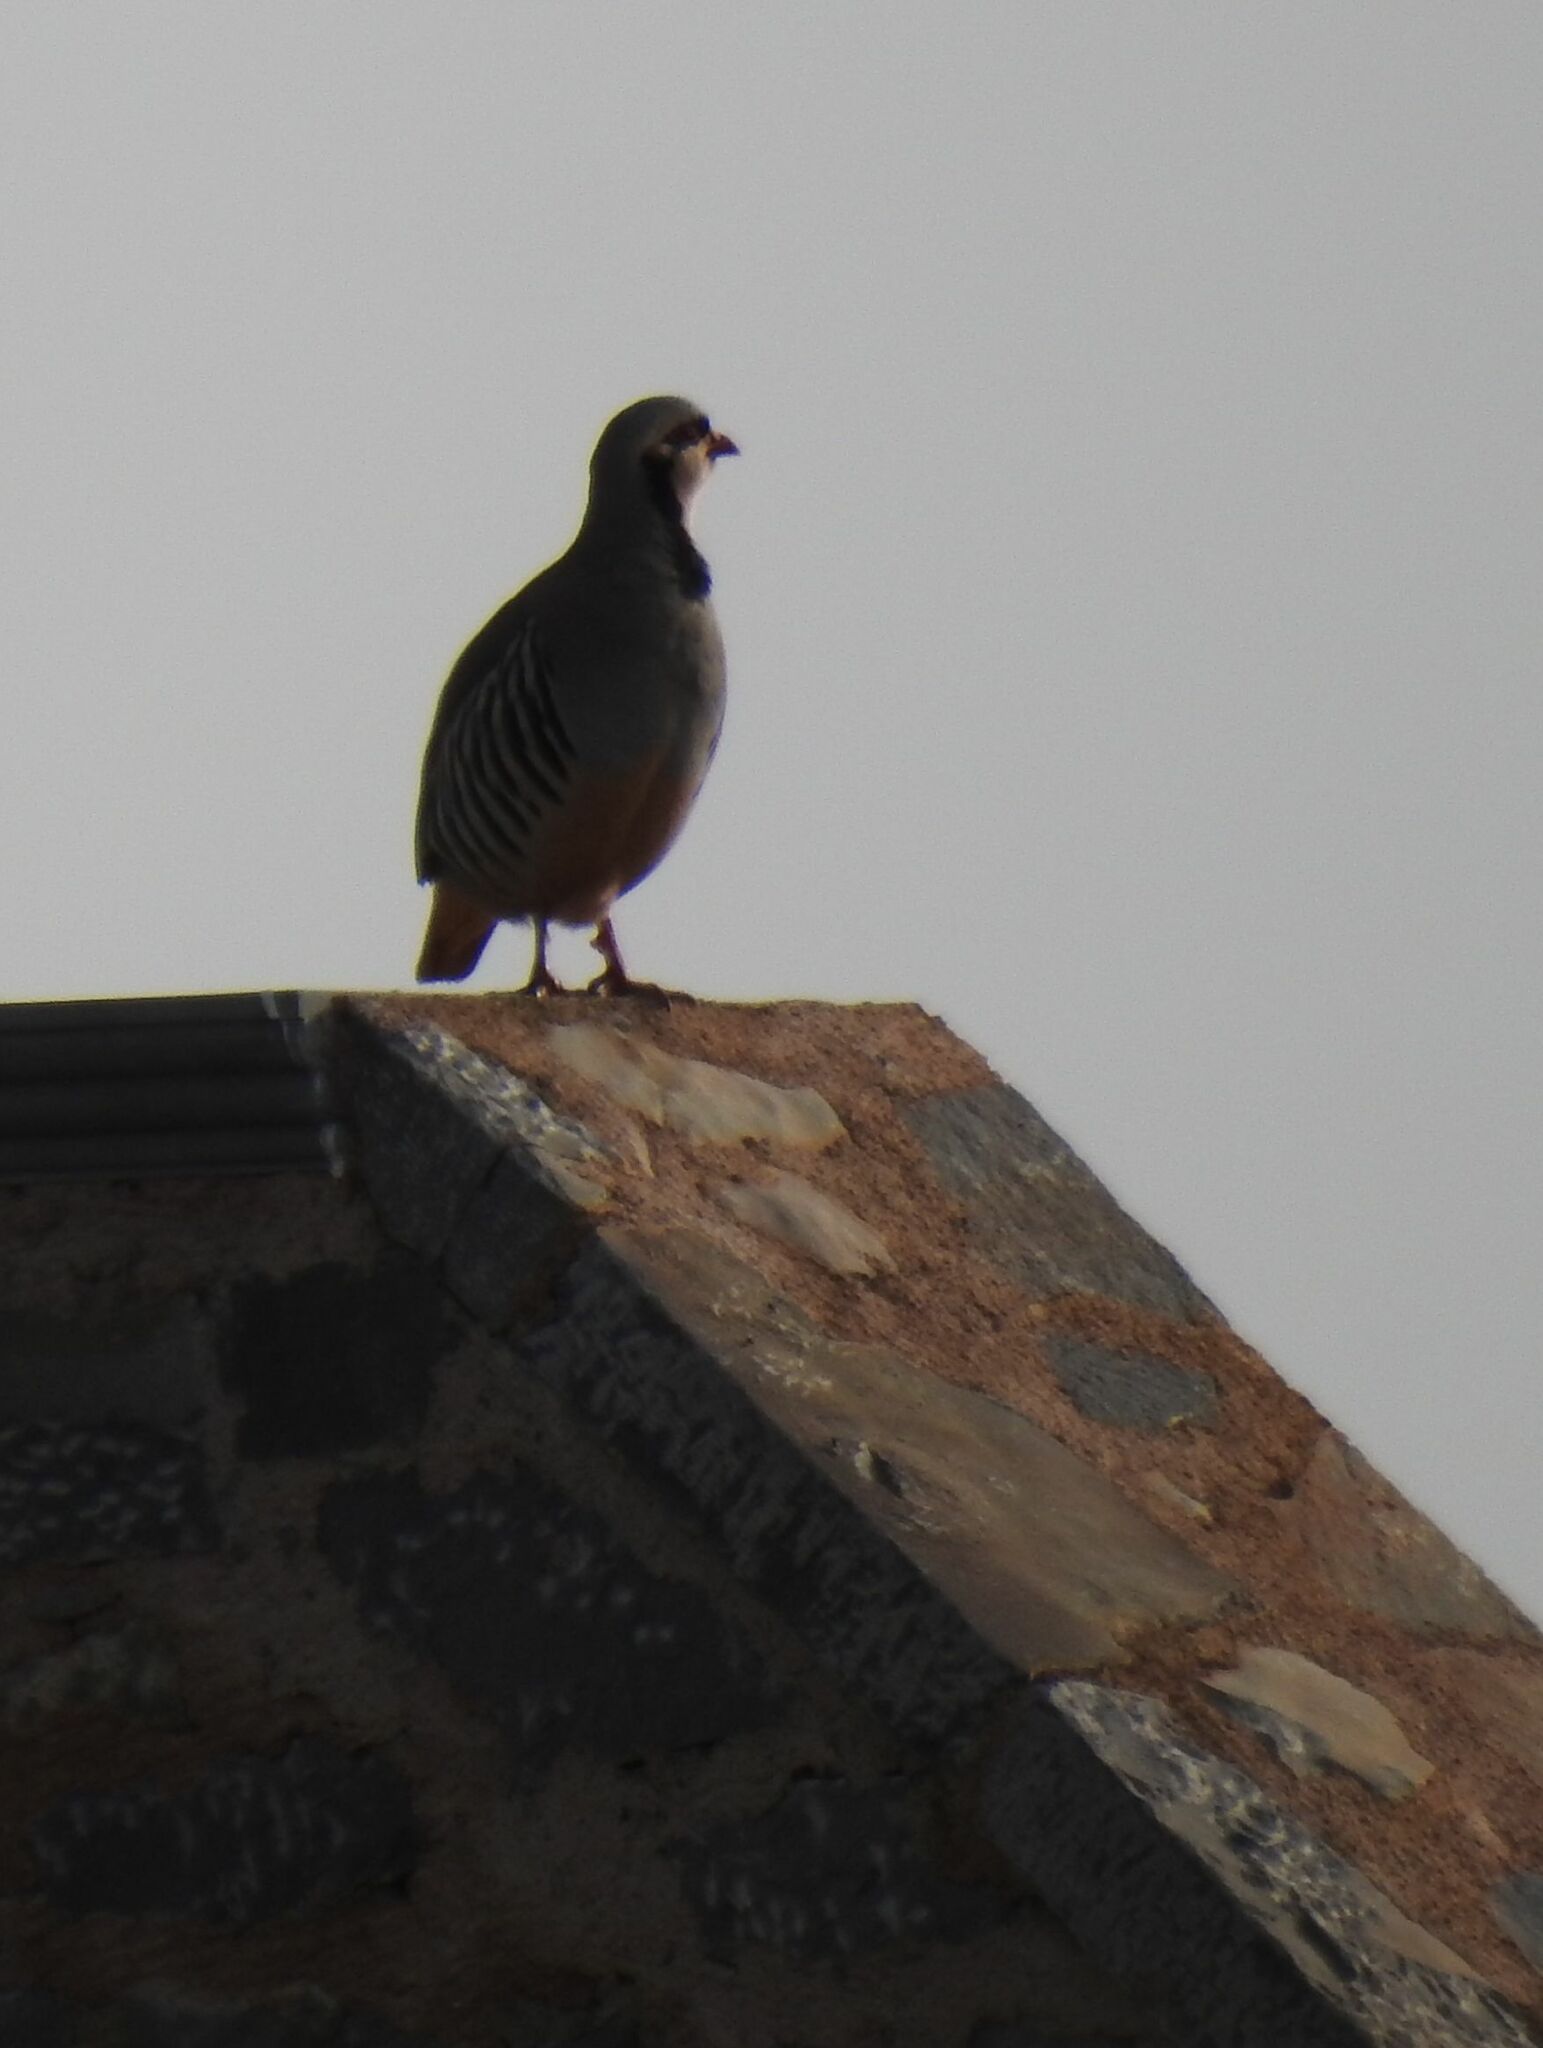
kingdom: Animalia
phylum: Chordata
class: Aves
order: Galliformes
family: Phasianidae
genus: Alectoris
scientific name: Alectoris chukar
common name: Chukar
